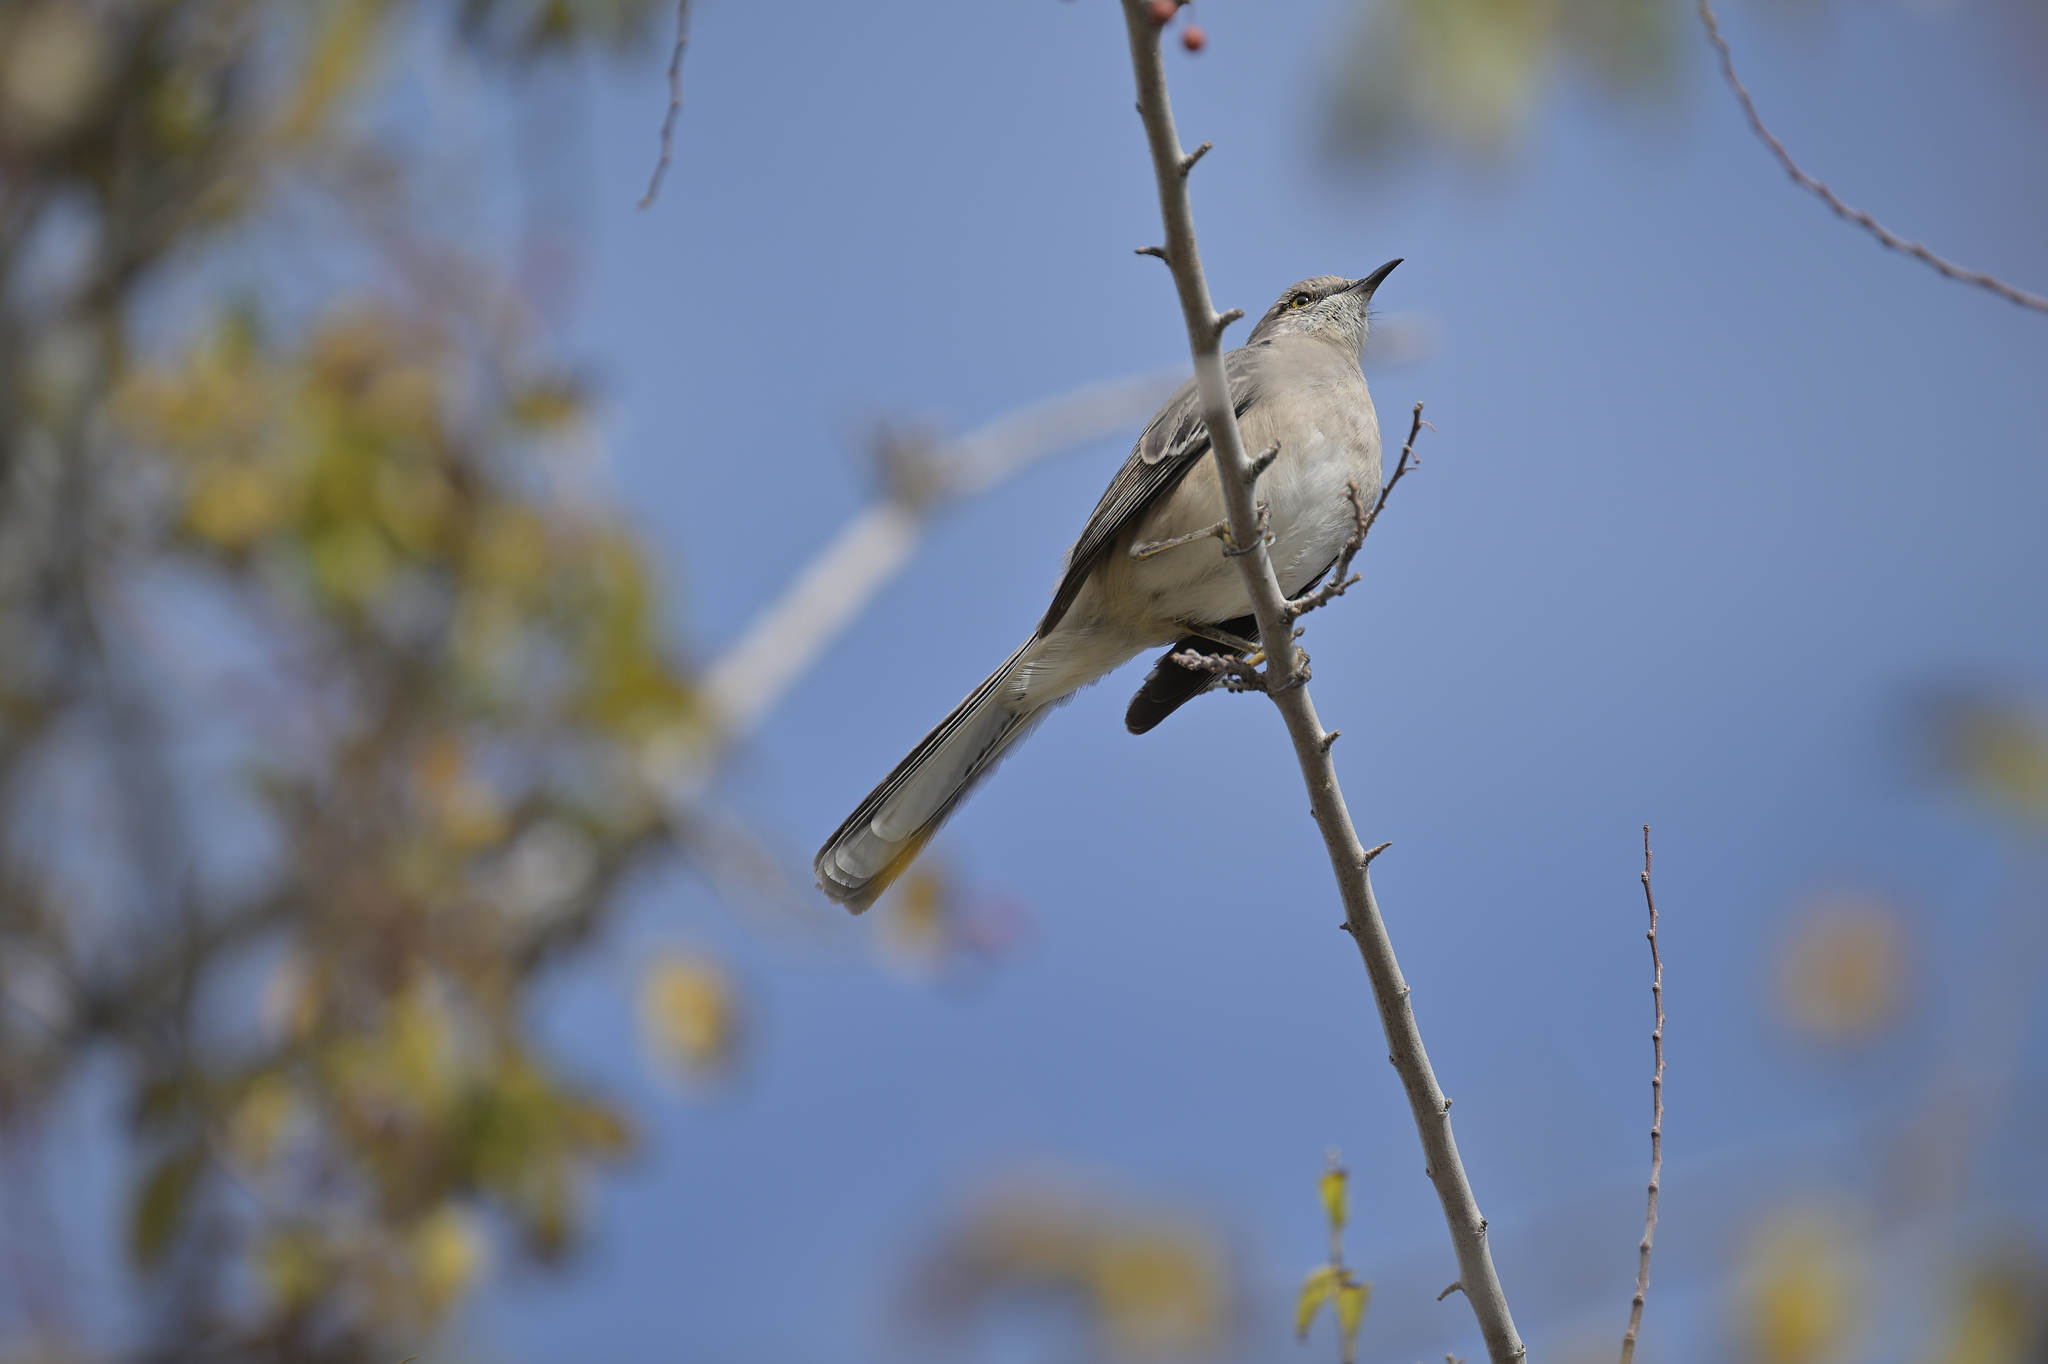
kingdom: Animalia
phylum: Chordata
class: Aves
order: Passeriformes
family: Mimidae
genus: Mimus
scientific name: Mimus polyglottos
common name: Northern mockingbird
